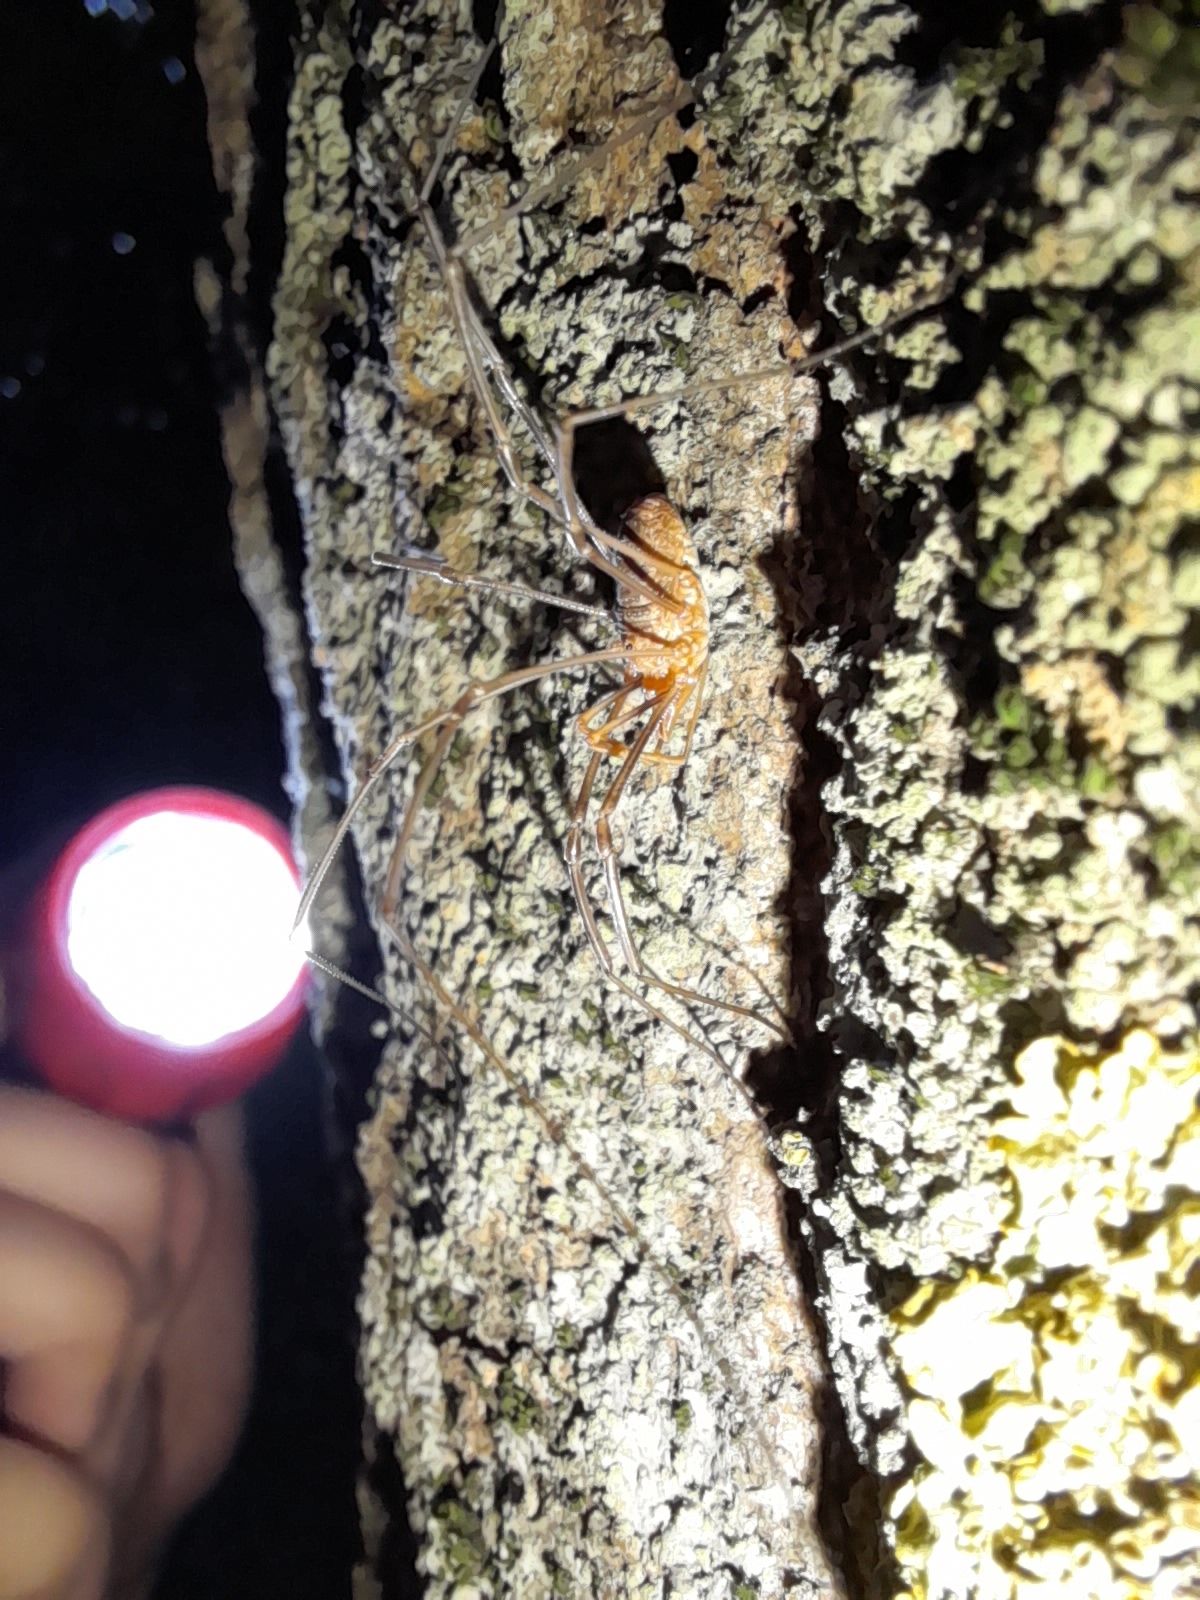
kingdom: Animalia
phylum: Arthropoda
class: Arachnida
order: Opiliones
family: Phalangiidae
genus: Phalangium
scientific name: Phalangium opilio
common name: Daddy longleg
